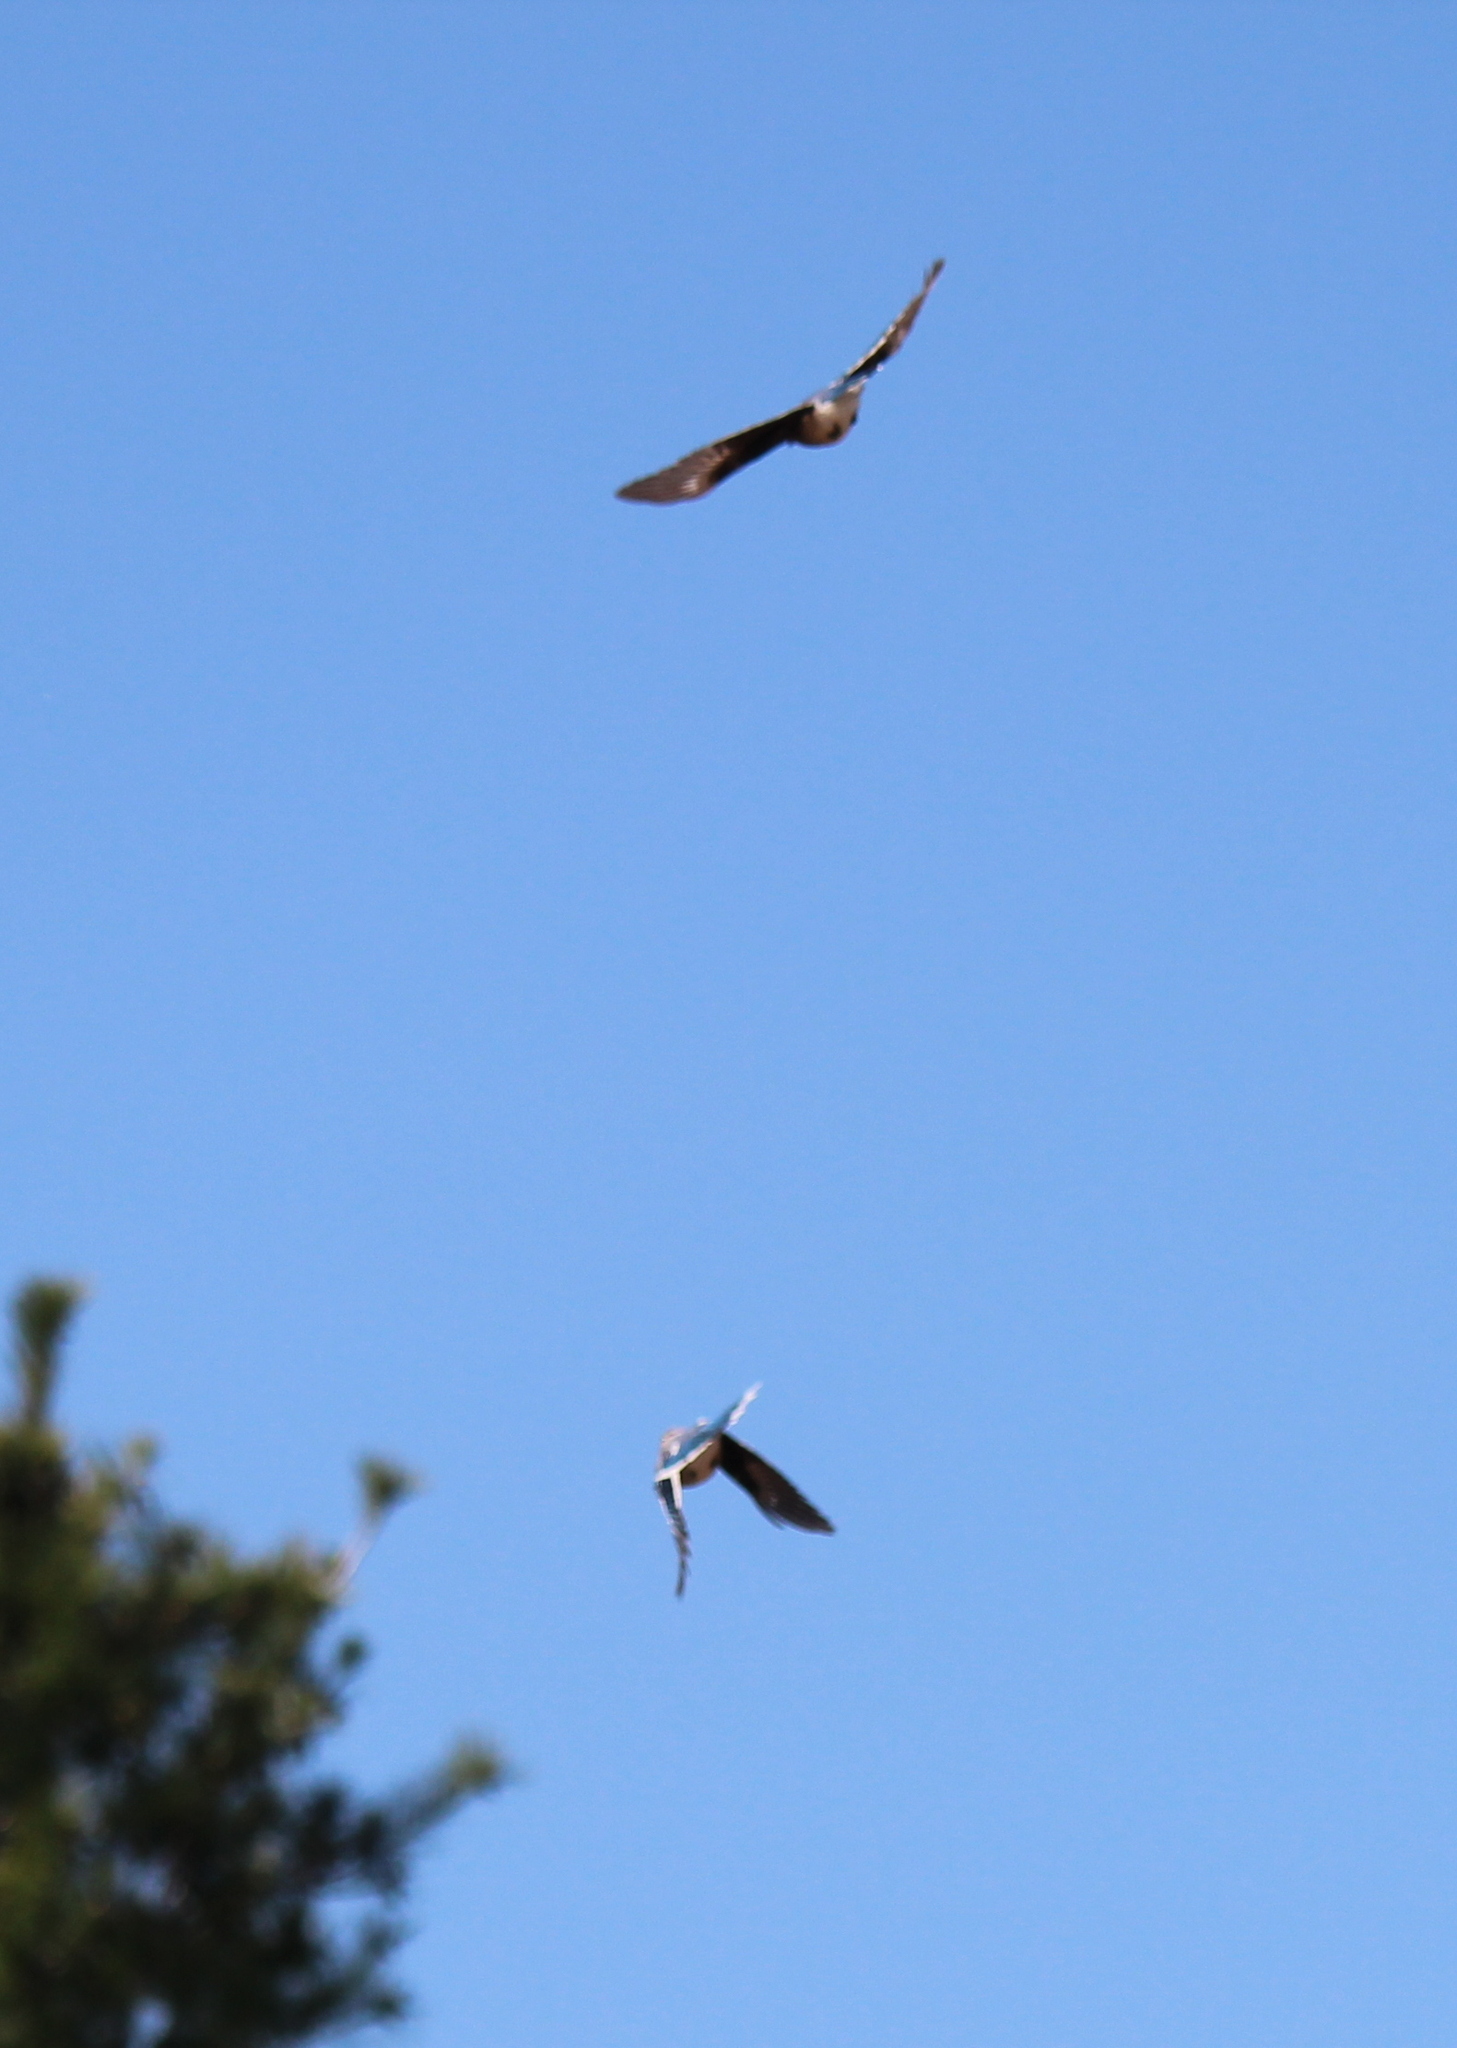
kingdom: Animalia
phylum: Chordata
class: Aves
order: Passeriformes
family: Corvidae
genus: Cyanocitta
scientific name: Cyanocitta cristata
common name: Blue jay
